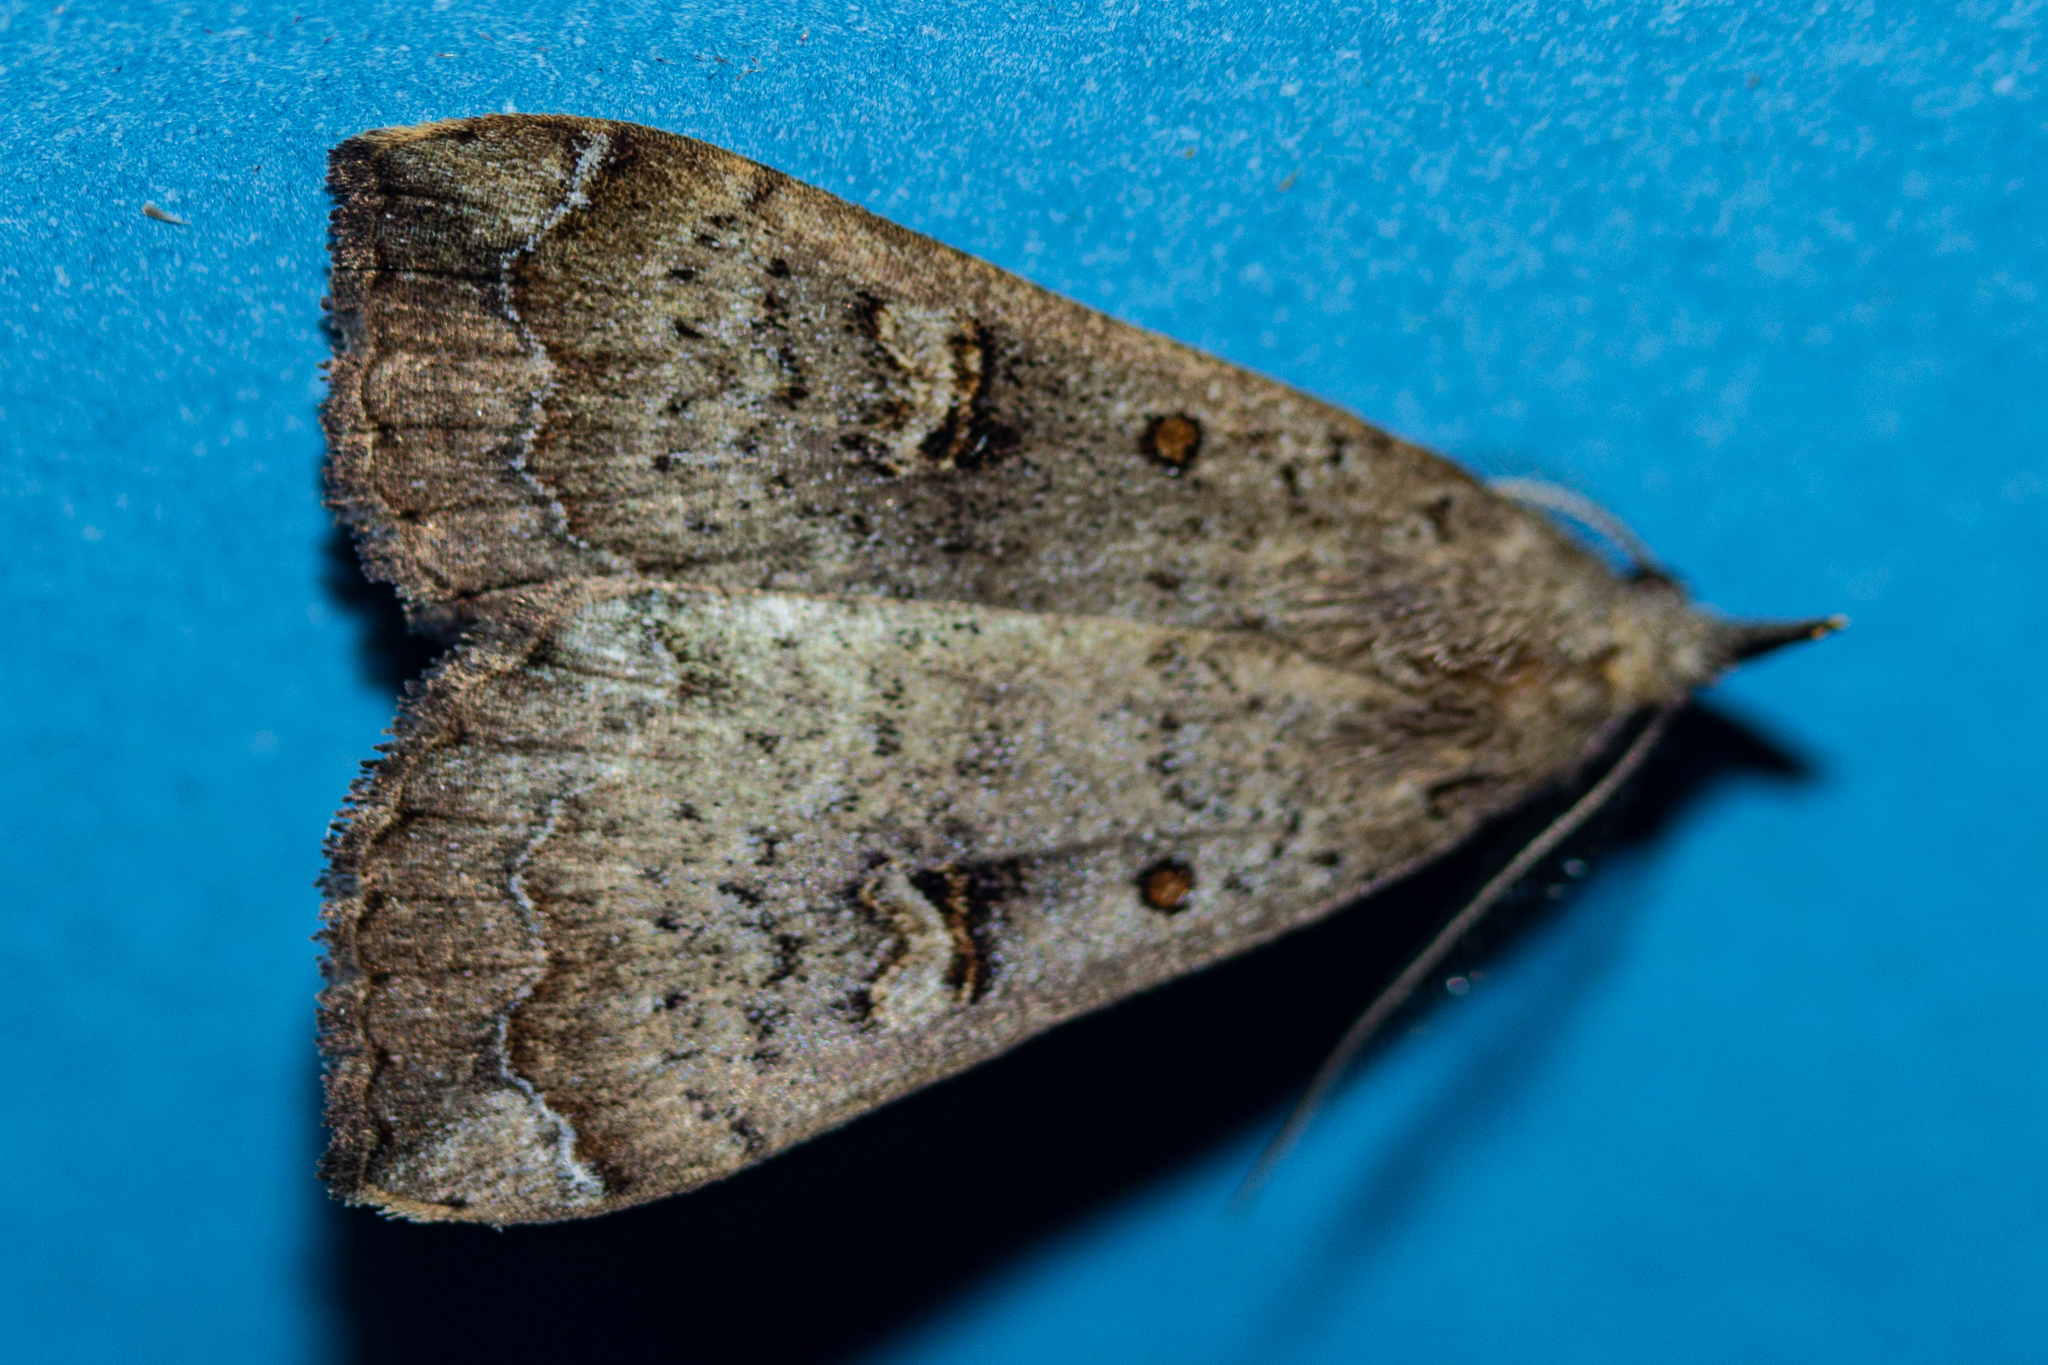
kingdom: Animalia
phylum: Arthropoda
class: Insecta
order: Lepidoptera
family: Erebidae
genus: Rhapsa
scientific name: Rhapsa scotosialis
